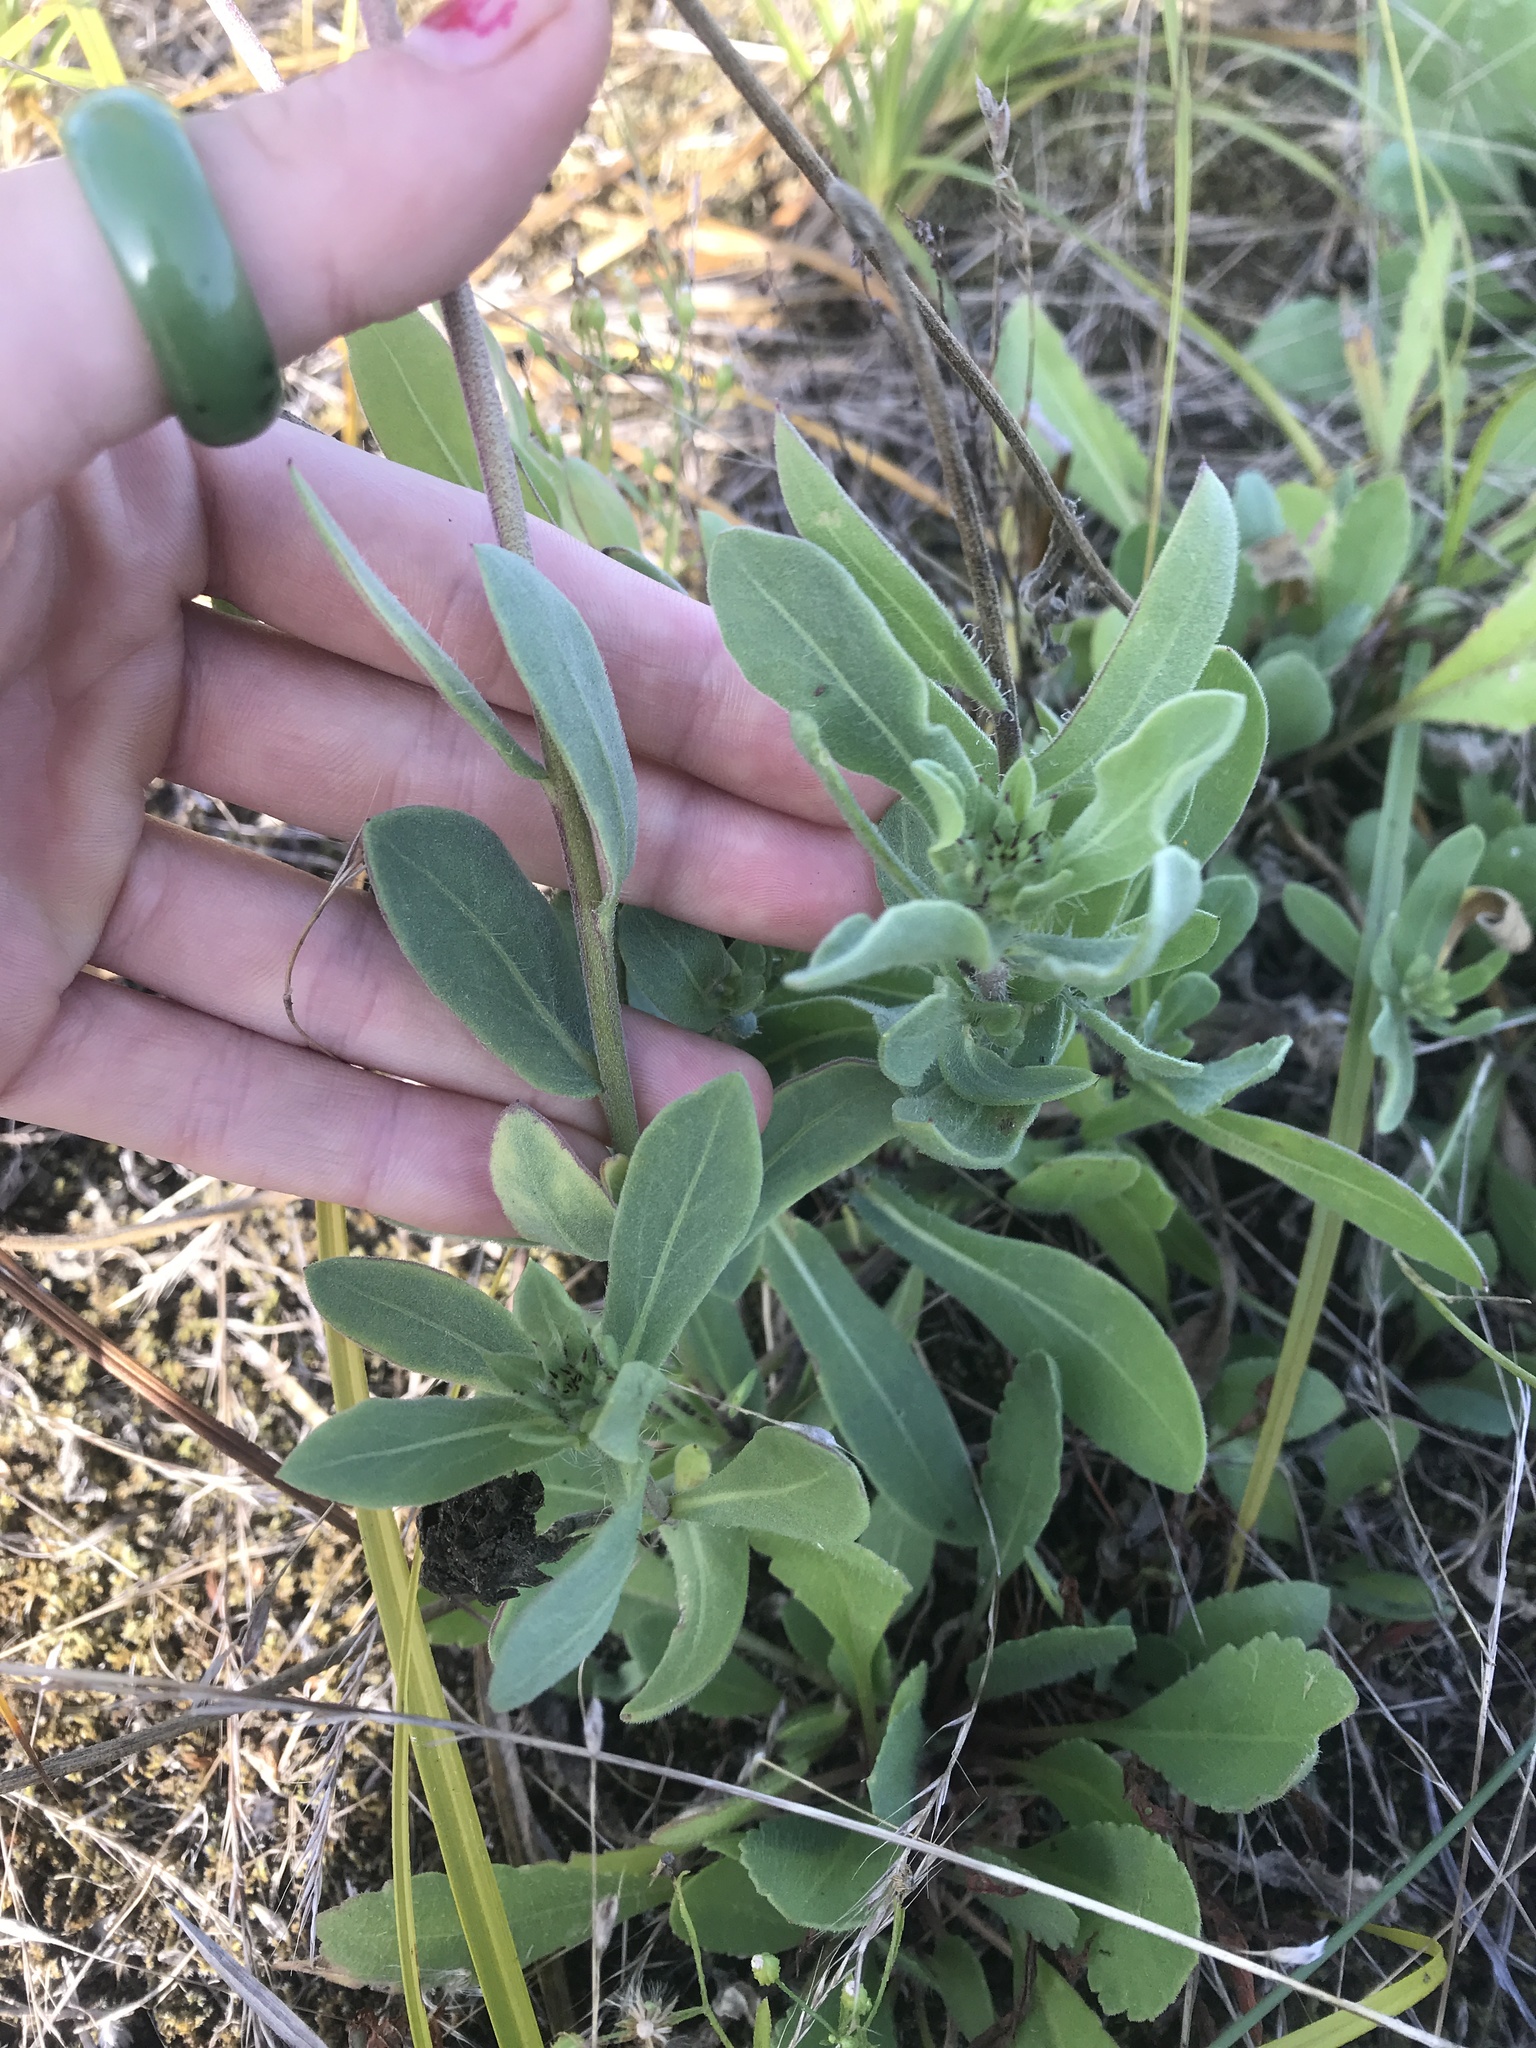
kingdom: Plantae
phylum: Tracheophyta
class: Magnoliopsida
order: Asterales
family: Asteraceae
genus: Gaillardia
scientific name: Gaillardia pulchella
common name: Firewheel
